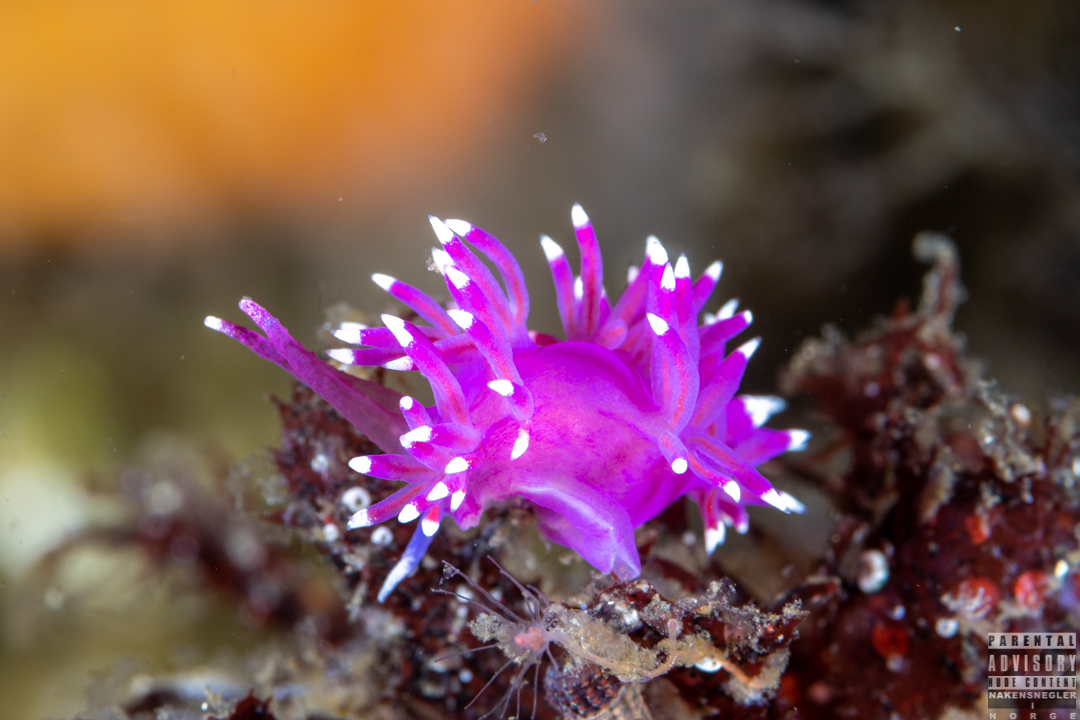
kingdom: Animalia
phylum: Mollusca
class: Gastropoda
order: Nudibranchia
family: Flabellinidae
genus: Edmundsella
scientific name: Edmundsella pedata
